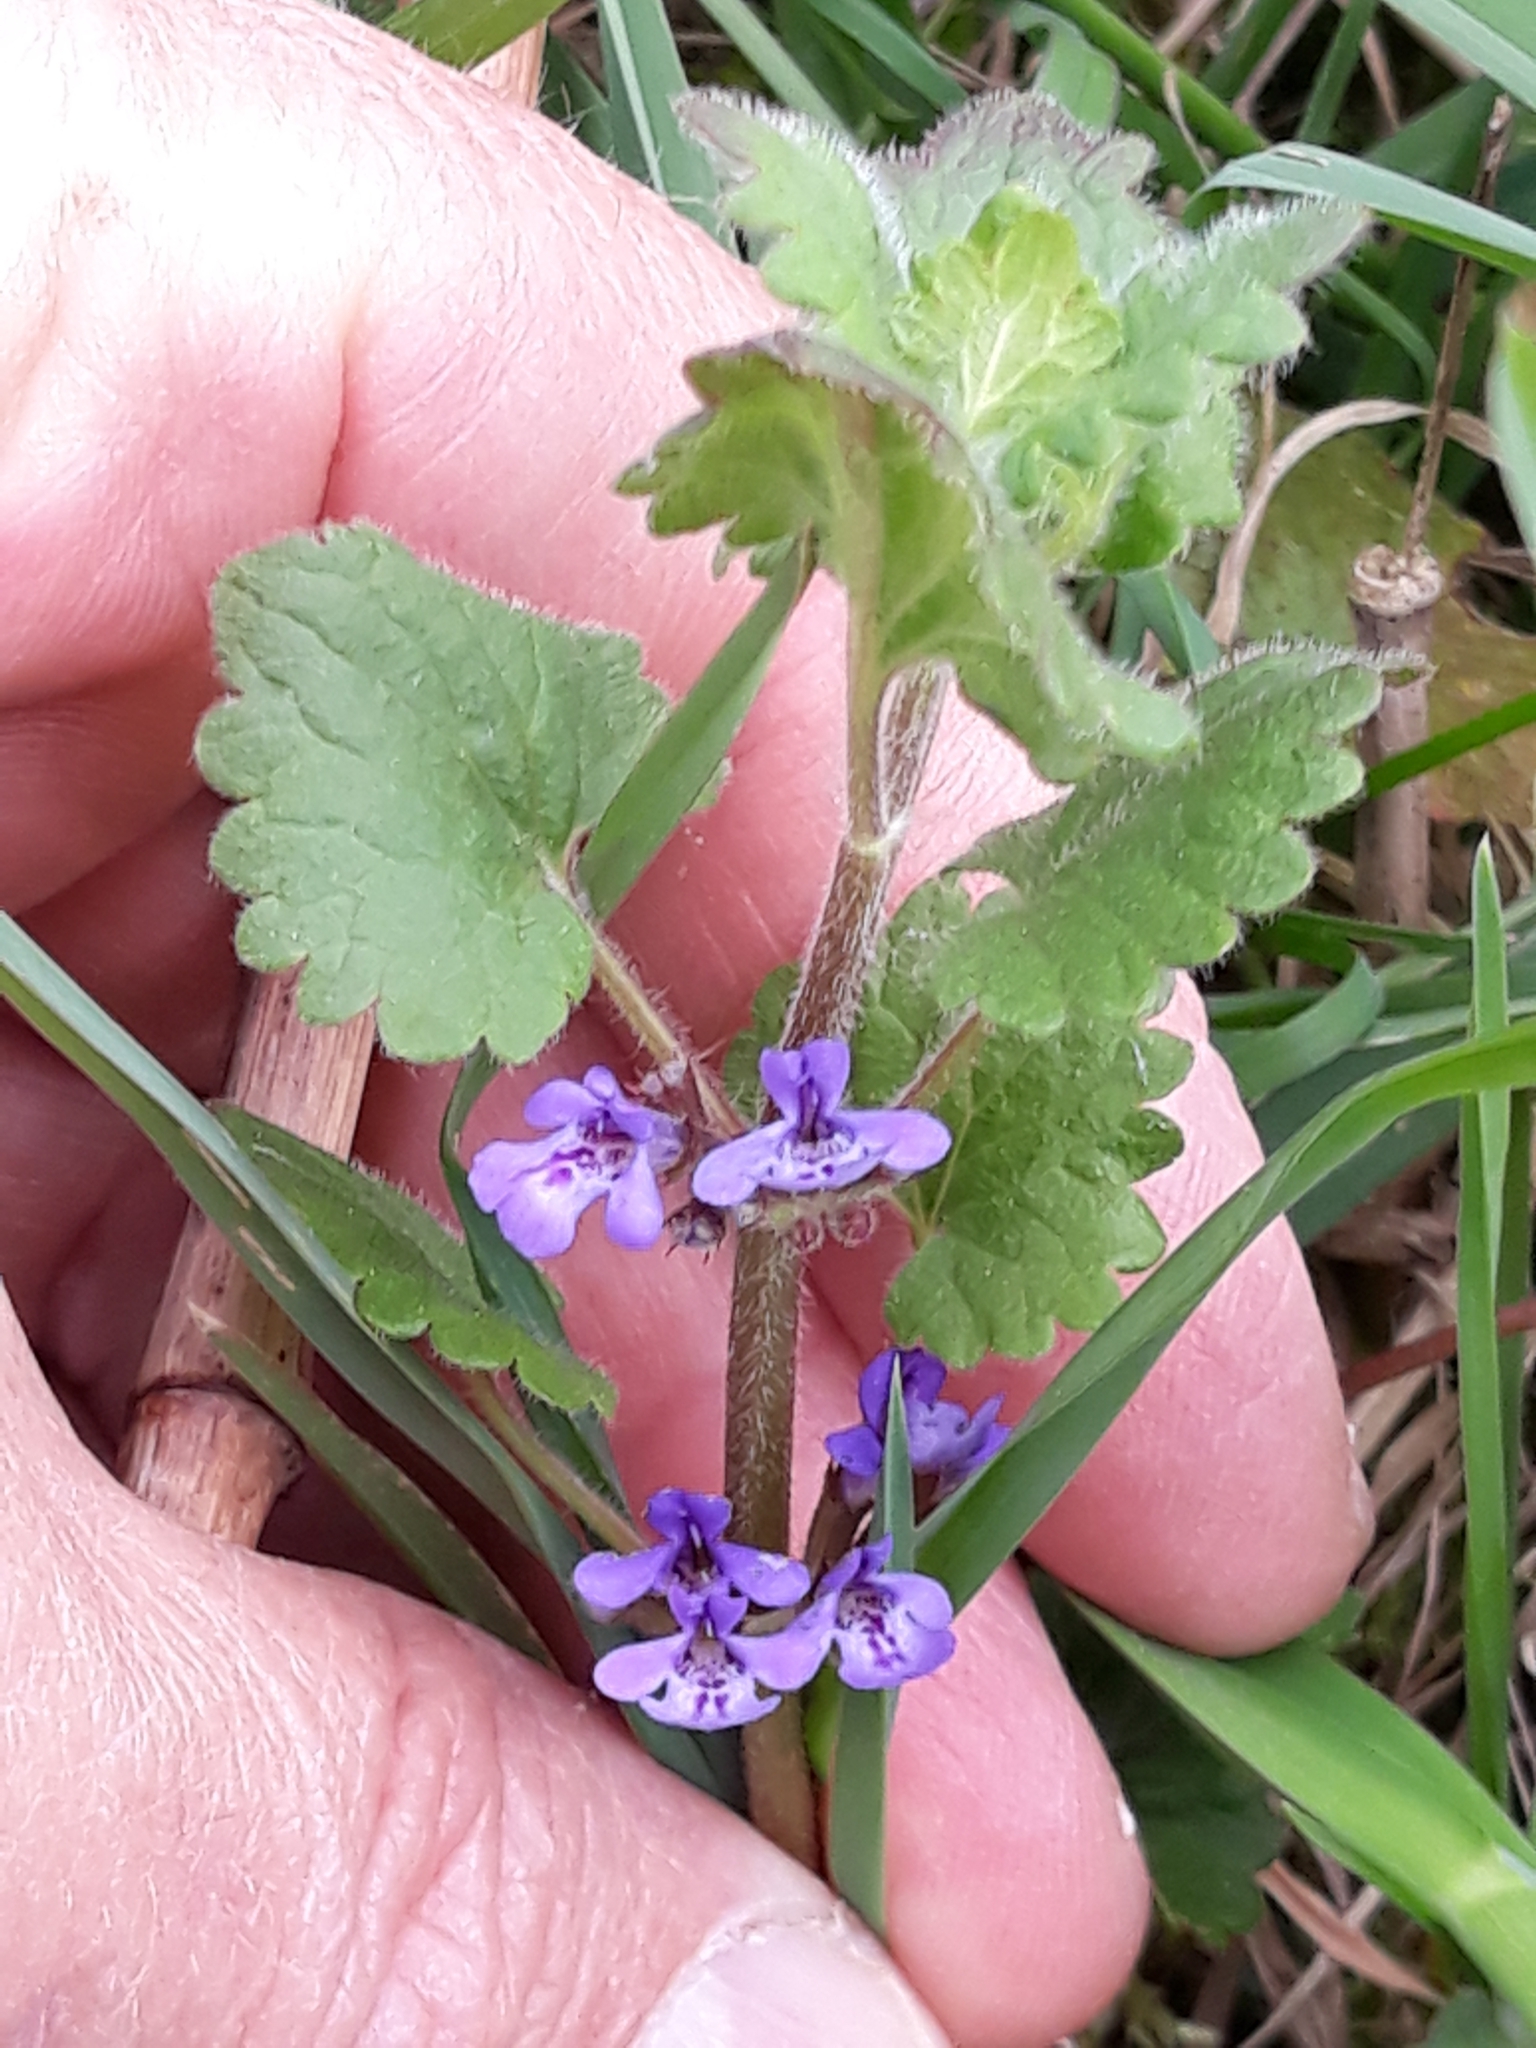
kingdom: Plantae
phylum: Tracheophyta
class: Magnoliopsida
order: Lamiales
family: Lamiaceae
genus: Glechoma
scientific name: Glechoma hederacea
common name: Ground ivy
